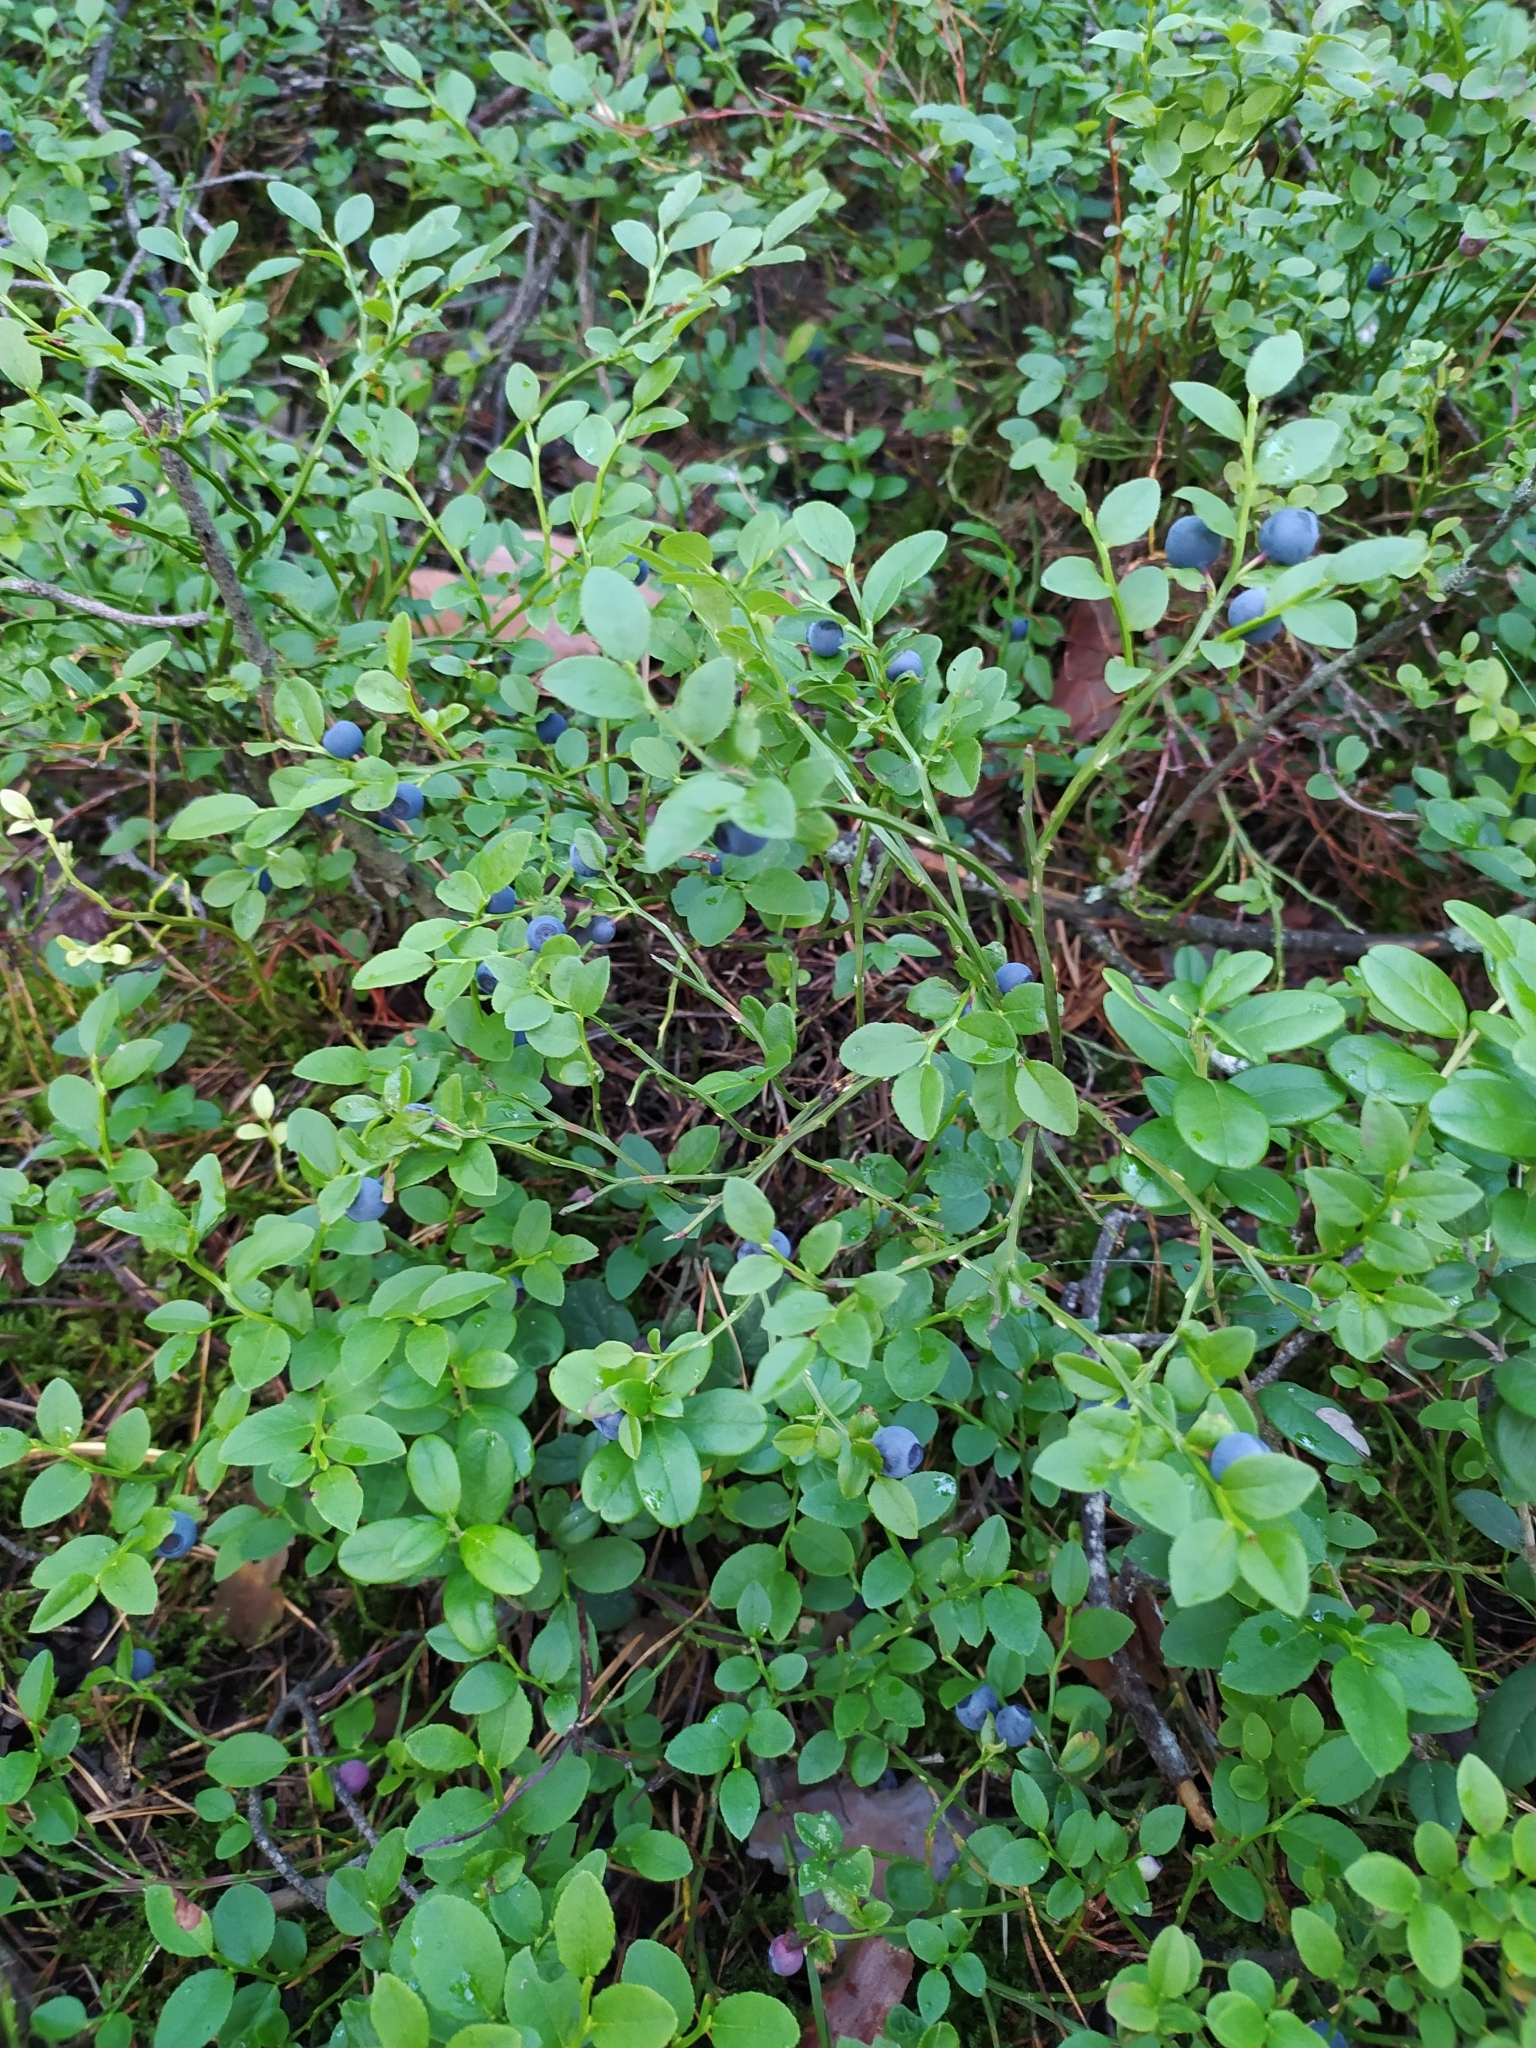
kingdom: Plantae
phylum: Tracheophyta
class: Magnoliopsida
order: Ericales
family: Ericaceae
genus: Vaccinium
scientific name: Vaccinium myrtillus
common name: Bilberry
